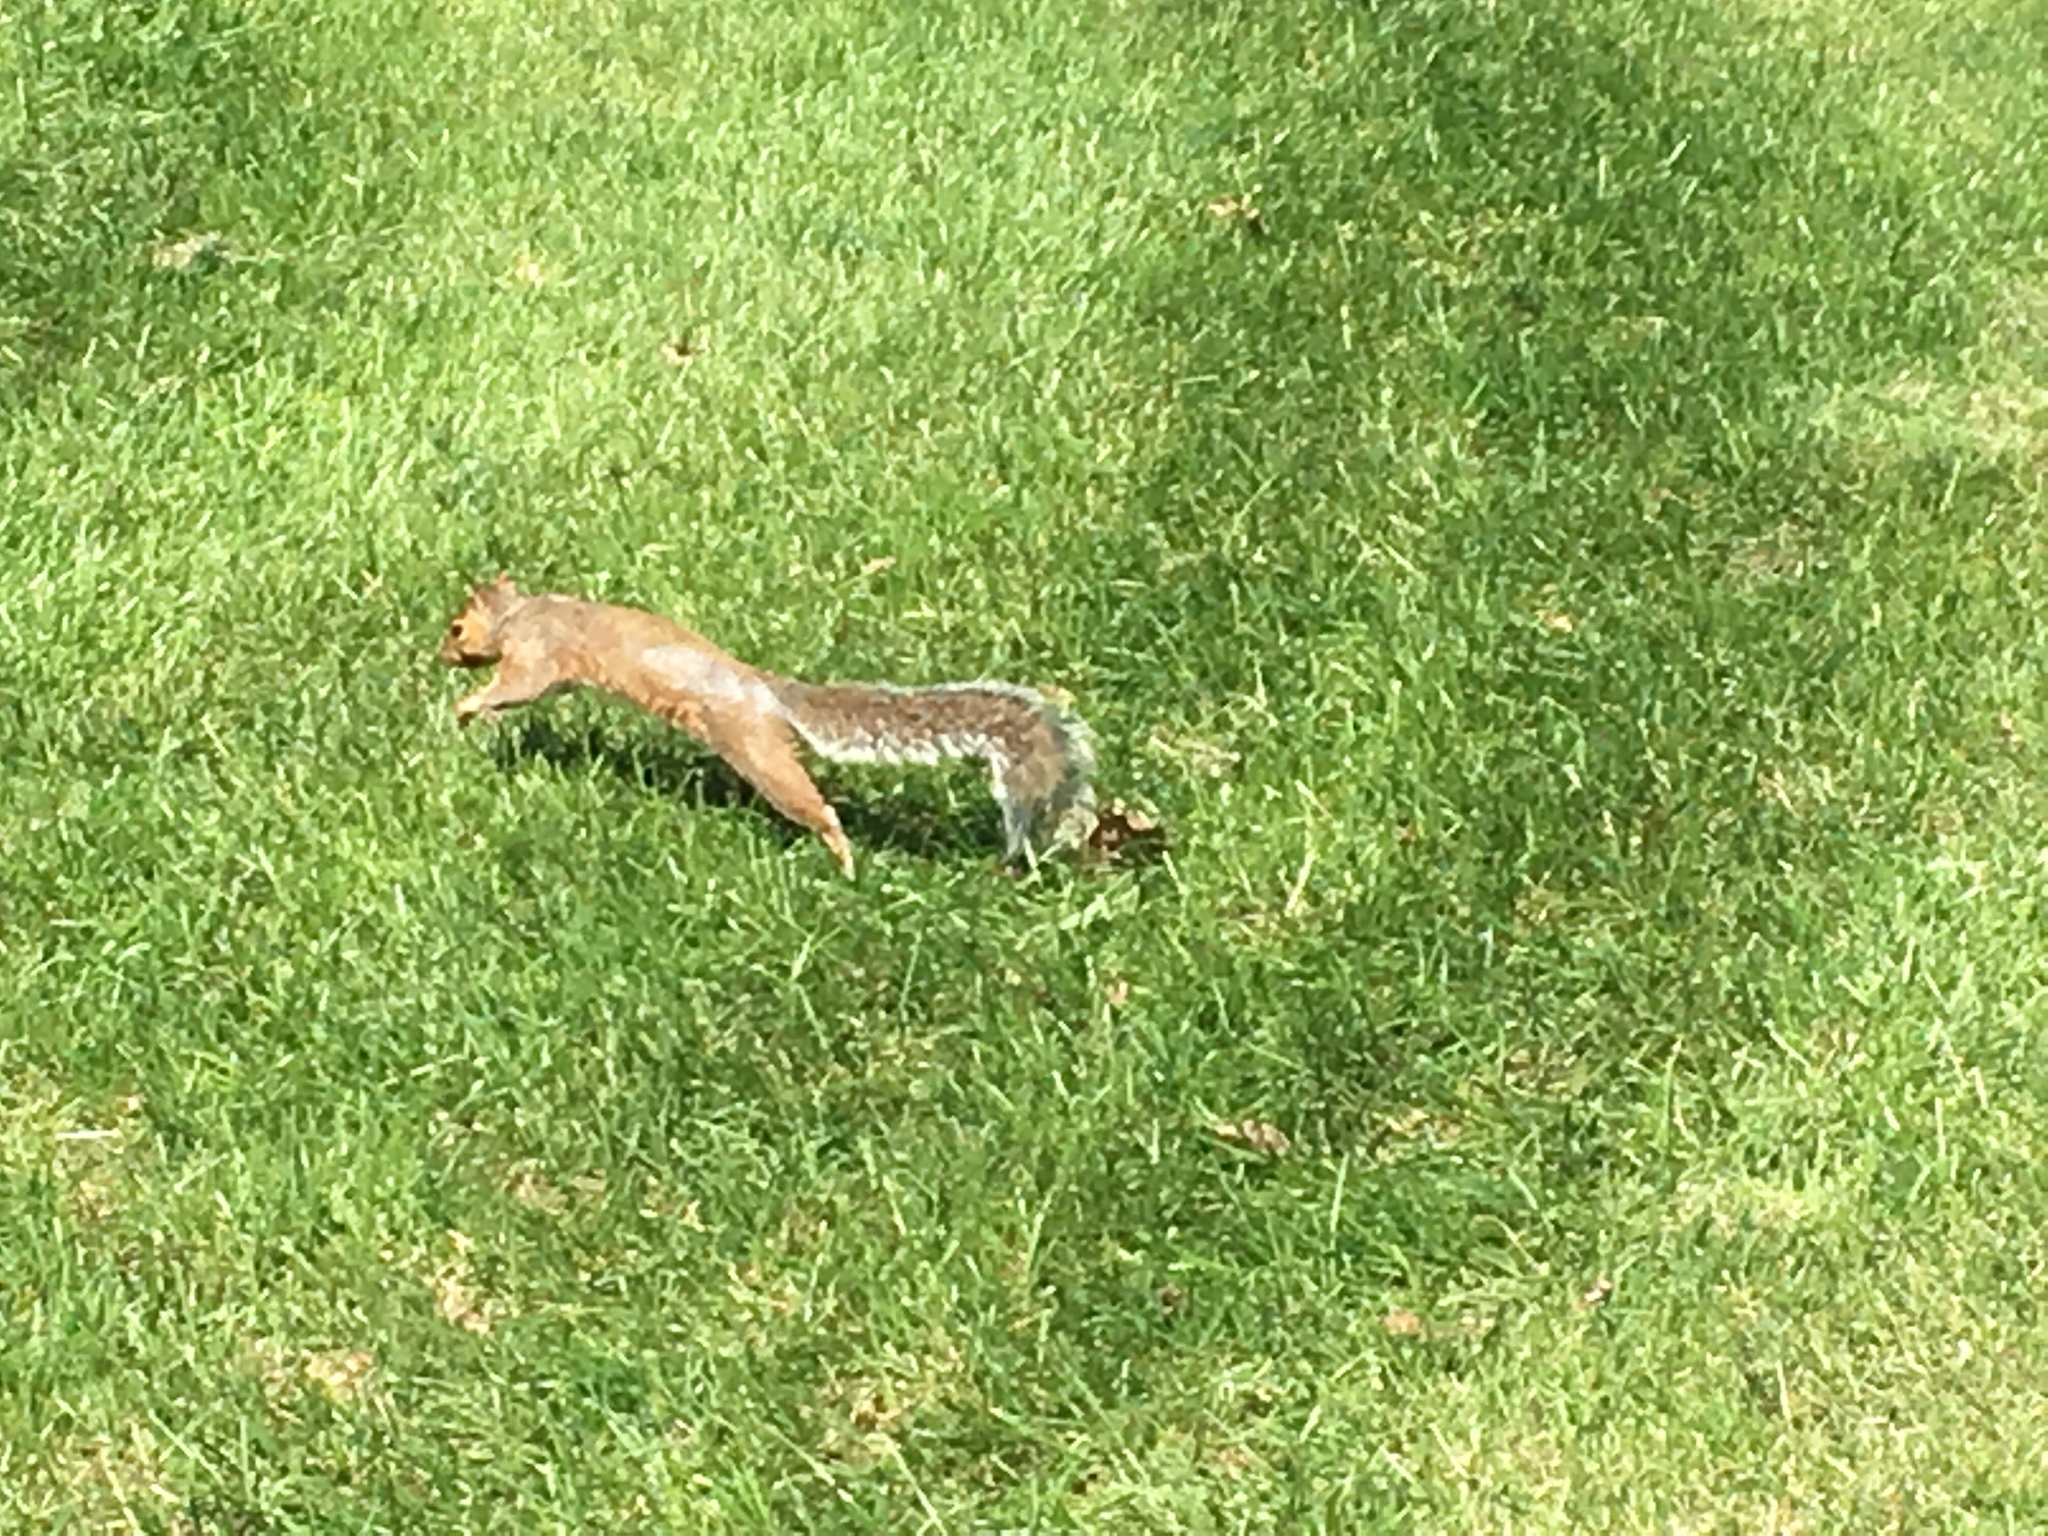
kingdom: Animalia
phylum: Chordata
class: Mammalia
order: Rodentia
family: Sciuridae
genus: Sciurus
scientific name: Sciurus carolinensis
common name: Eastern gray squirrel
